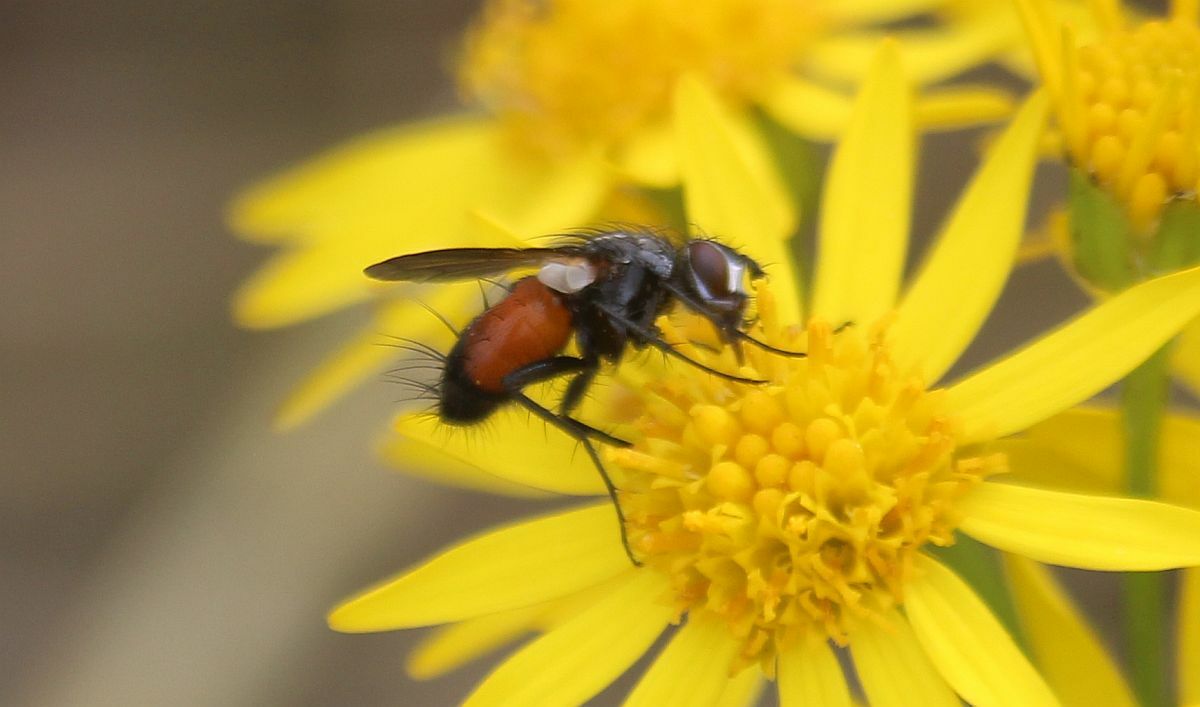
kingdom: Animalia
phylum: Arthropoda
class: Insecta
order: Diptera
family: Tachinidae
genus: Eriothrix
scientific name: Eriothrix rufomaculatus
